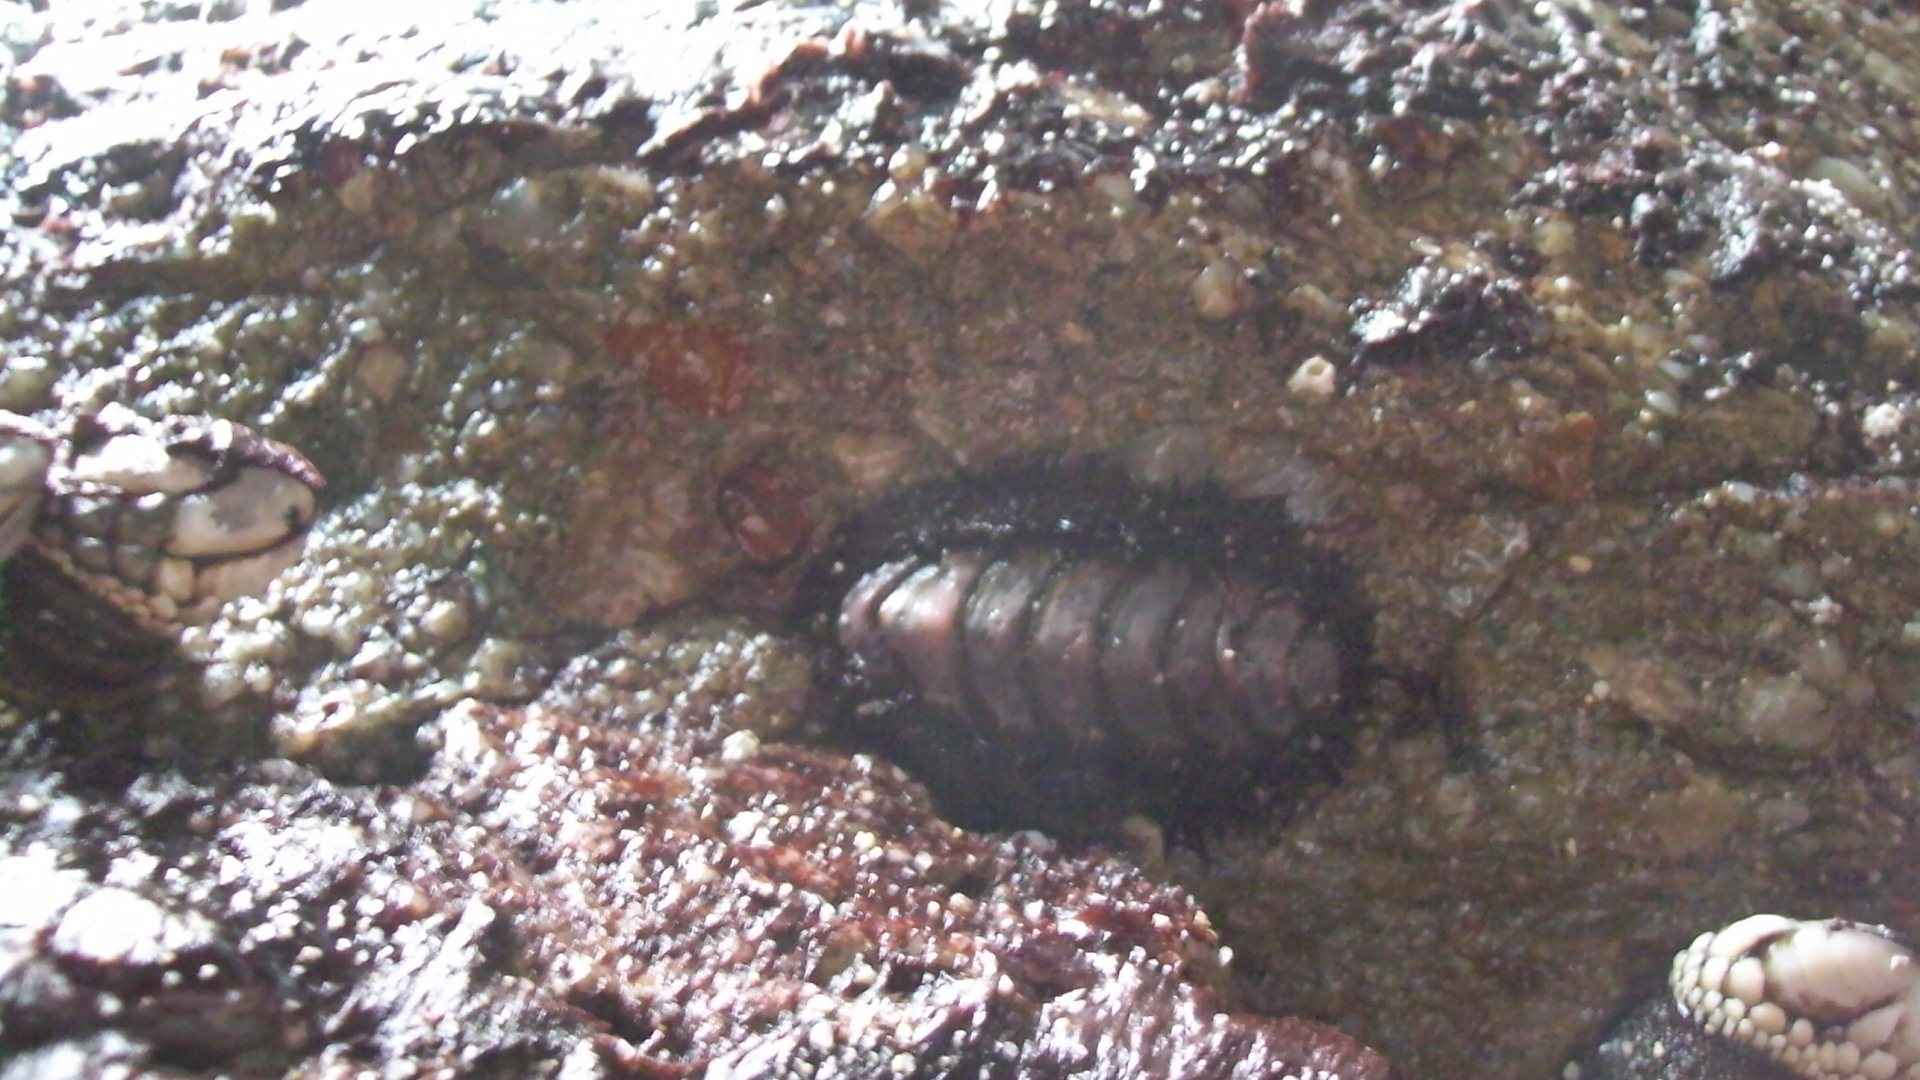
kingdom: Animalia
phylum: Mollusca
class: Polyplacophora
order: Chitonida
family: Mopaliidae
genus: Mopalia
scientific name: Mopalia muscosa
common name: Mossy chiton
